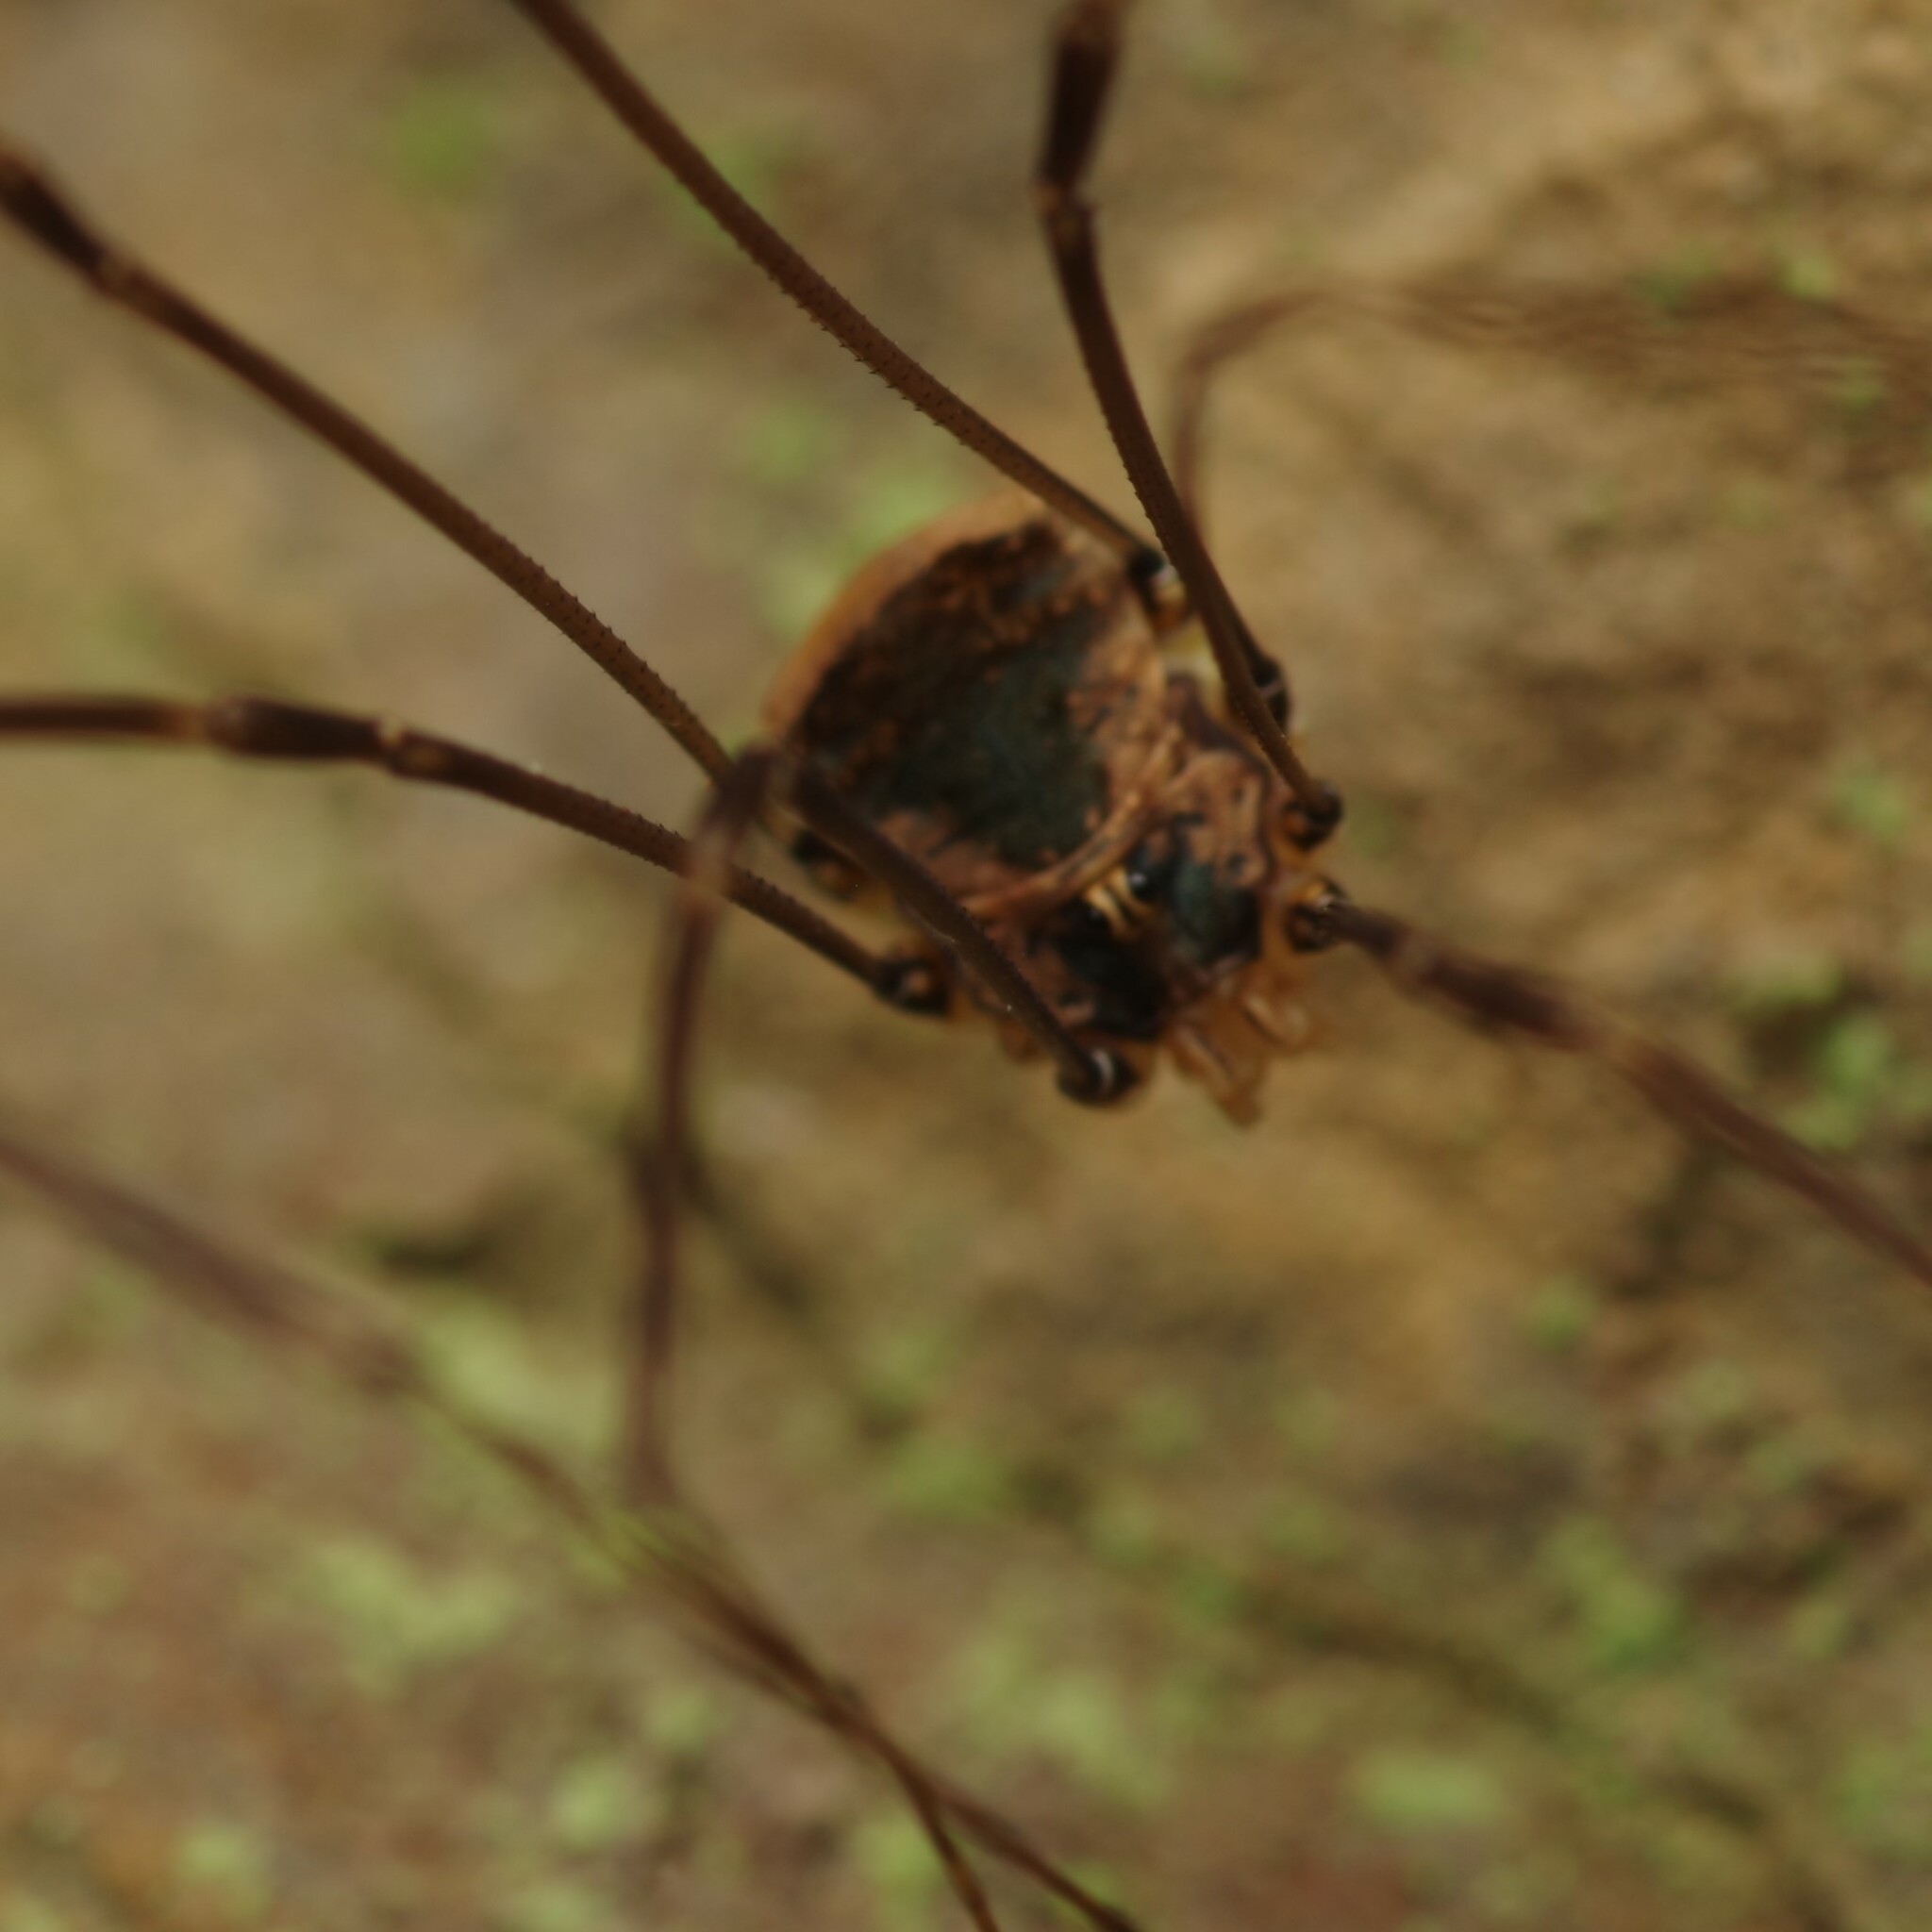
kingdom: Animalia
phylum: Arthropoda
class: Arachnida
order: Opiliones
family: Sclerosomatidae
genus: Leiobunum
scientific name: Leiobunum blackwalli
